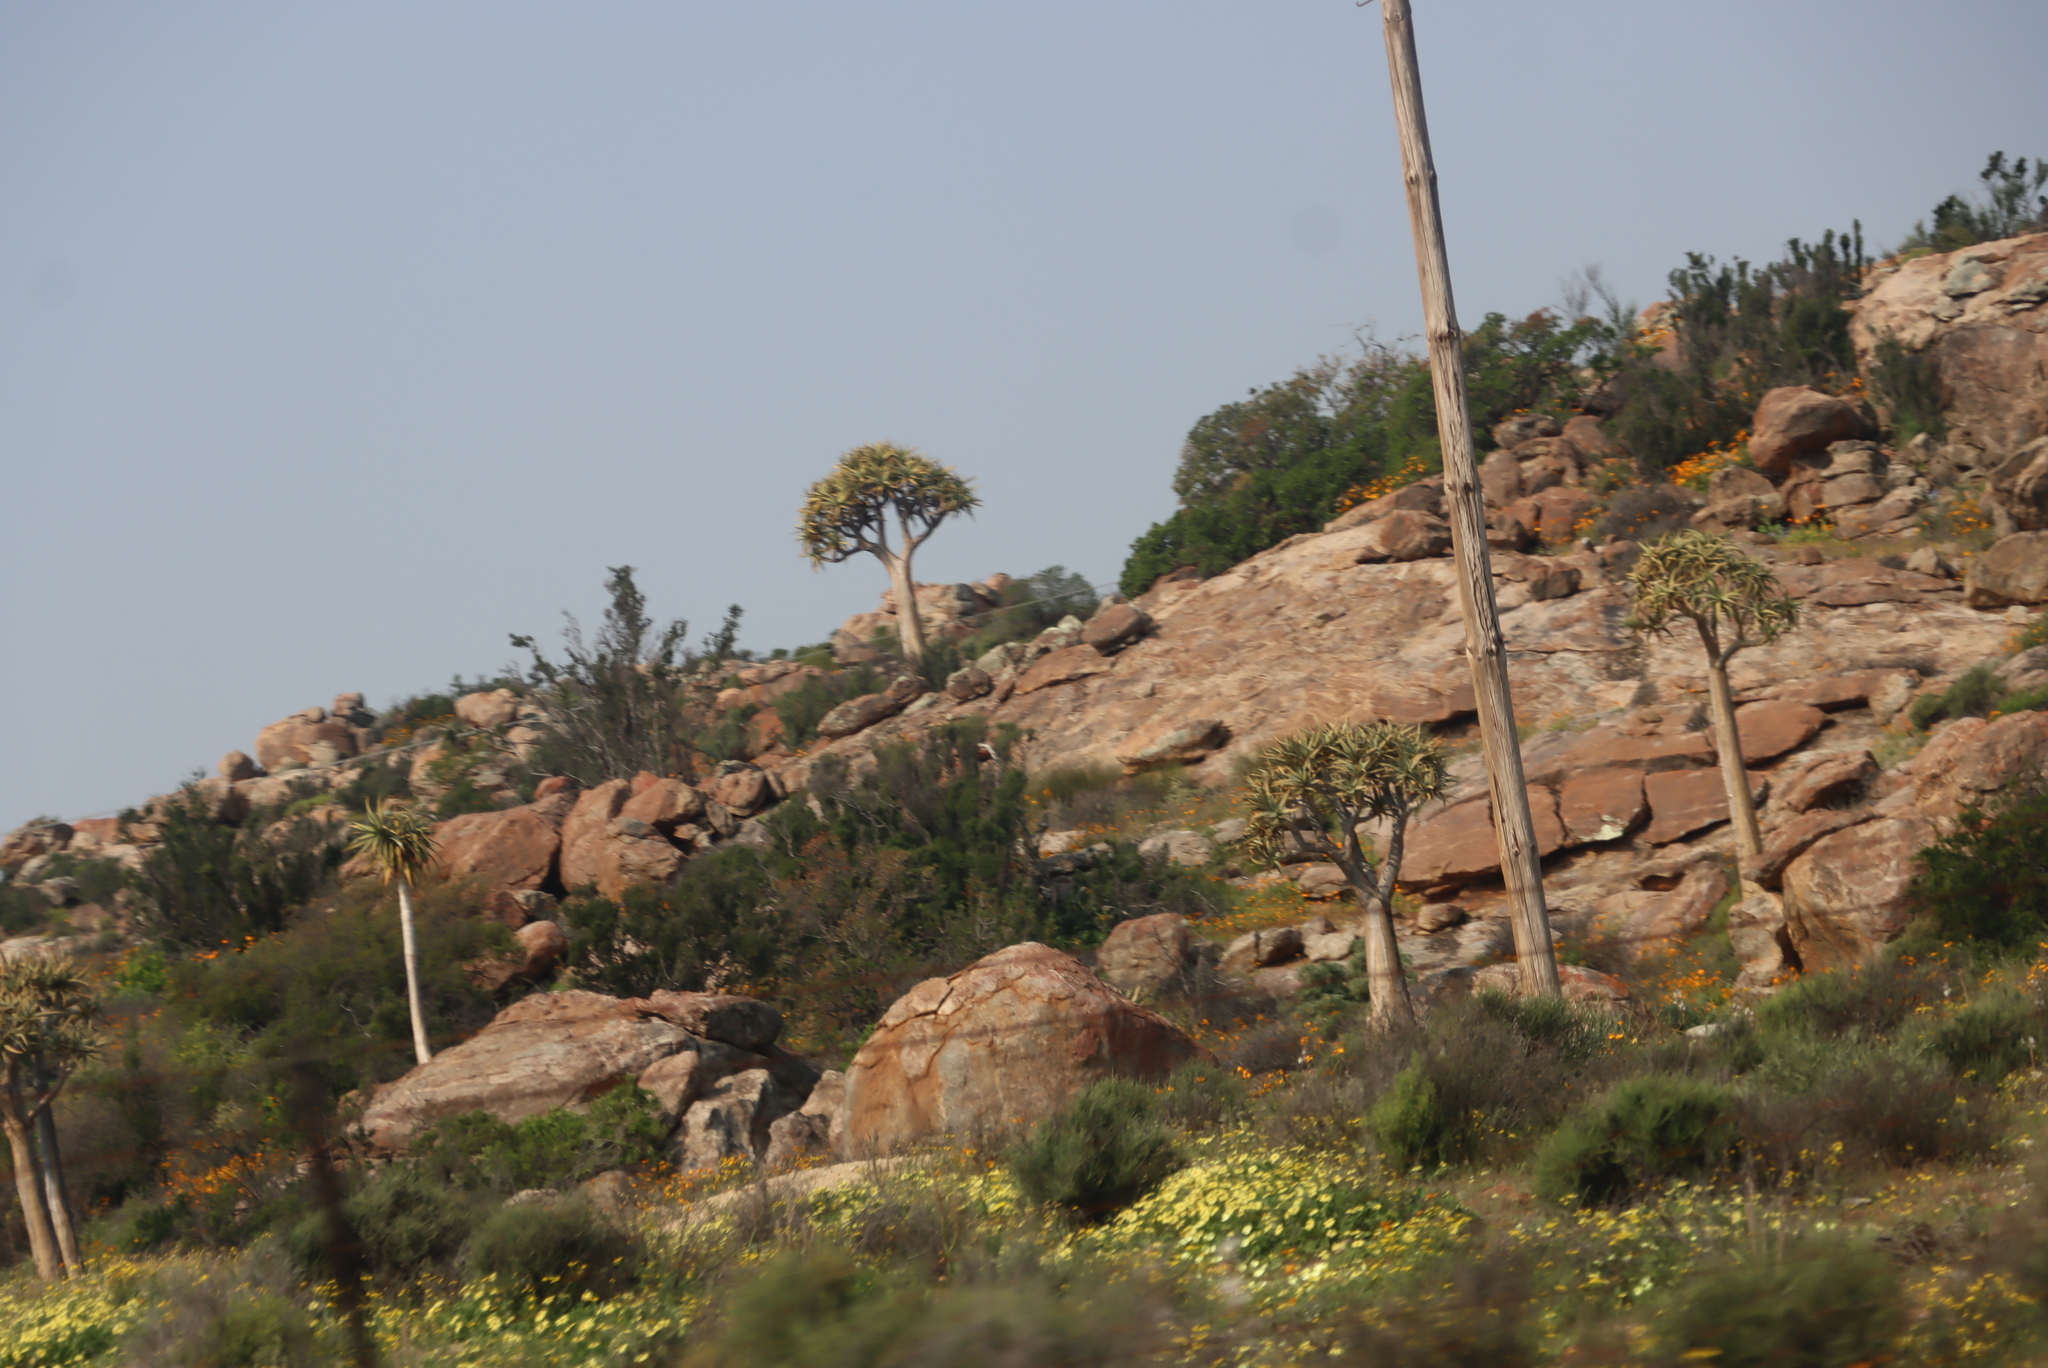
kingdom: Plantae
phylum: Tracheophyta
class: Liliopsida
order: Asparagales
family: Asphodelaceae
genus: Aloidendron
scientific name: Aloidendron dichotomum
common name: Quiver tree
